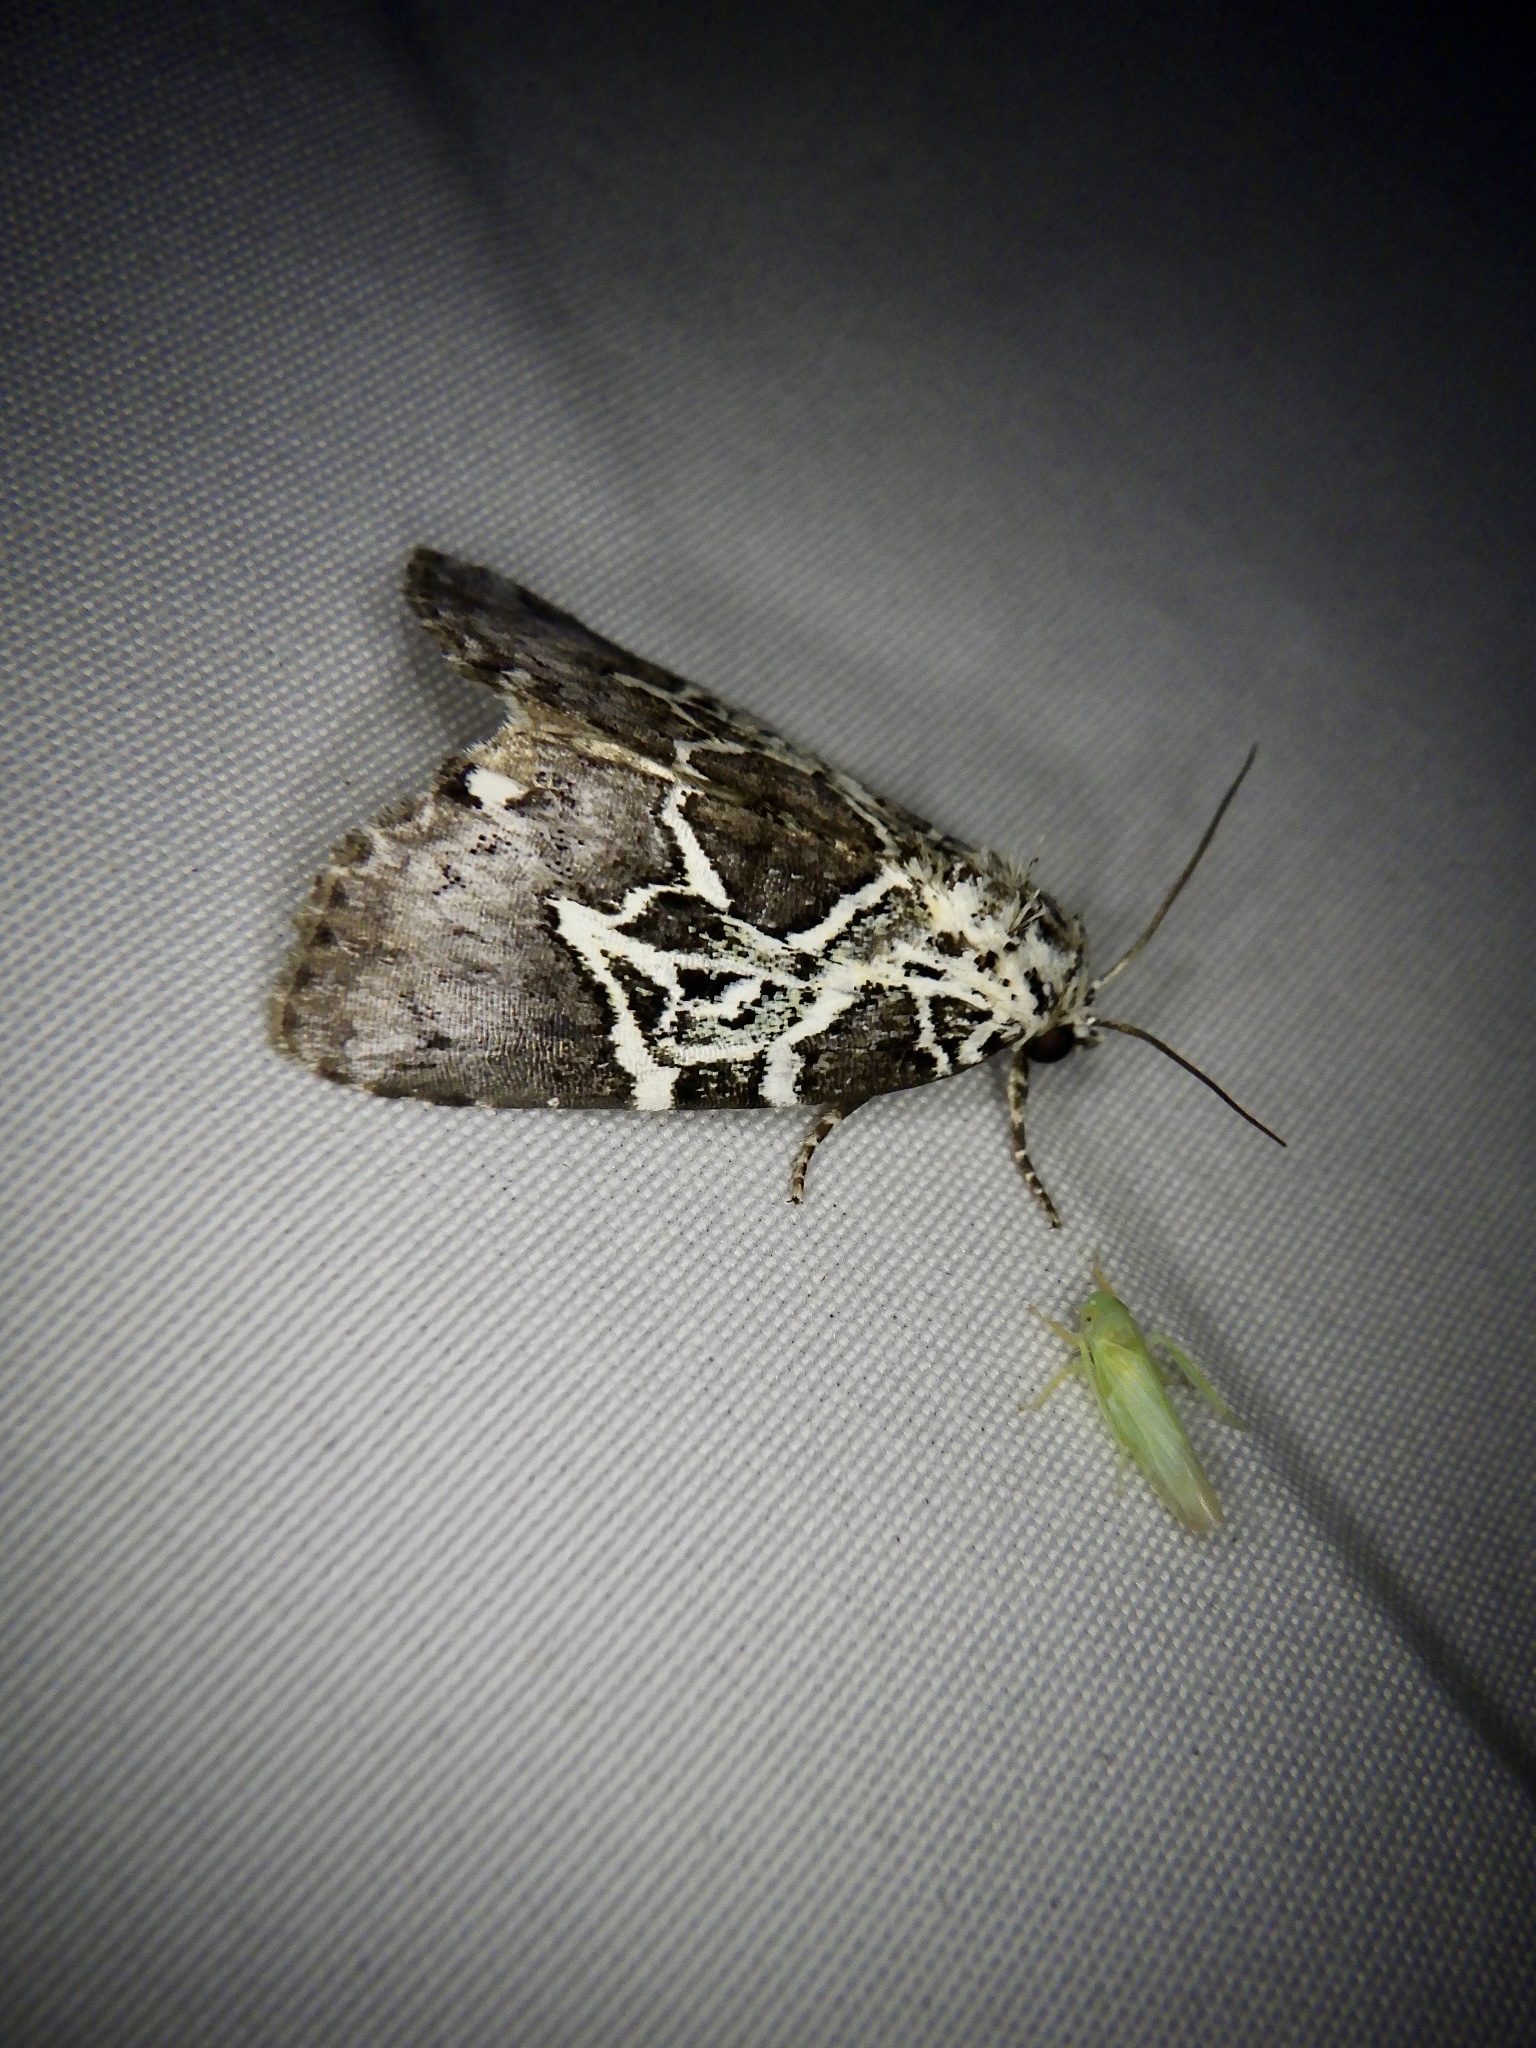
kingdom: Animalia
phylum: Arthropoda
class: Insecta
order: Lepidoptera
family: Noctuidae
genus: Lophonycta
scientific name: Lophonycta confusa
